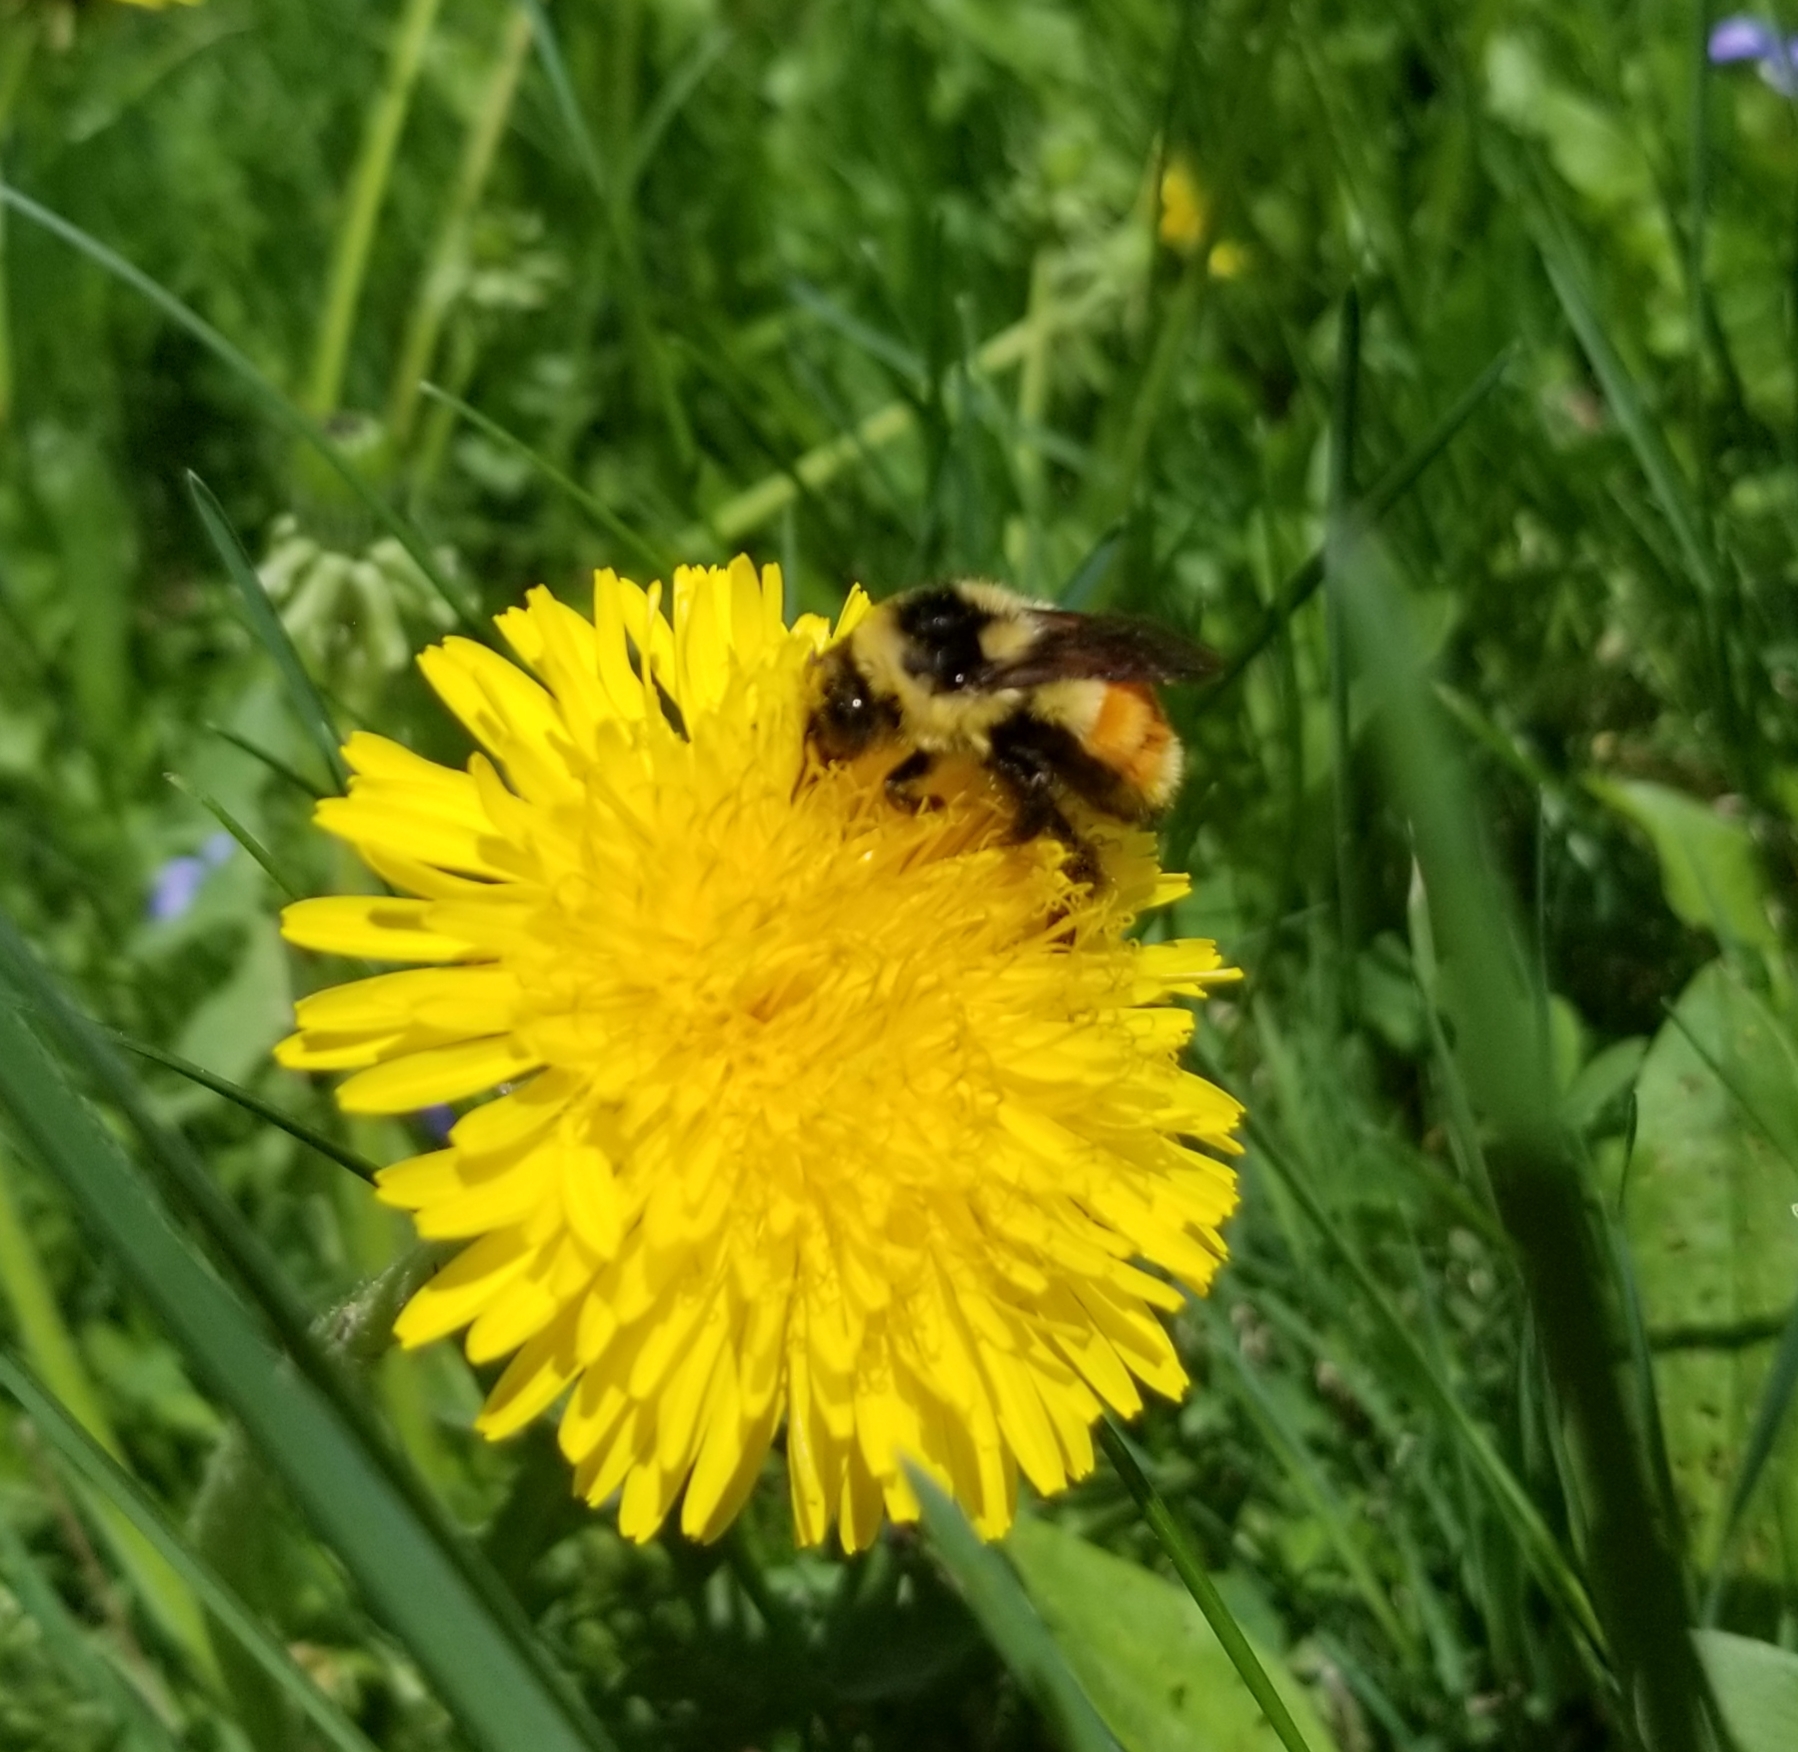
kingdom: Animalia
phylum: Arthropoda
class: Insecta
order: Hymenoptera
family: Apidae
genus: Bombus
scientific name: Bombus ternarius
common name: Tri-colored bumble bee
